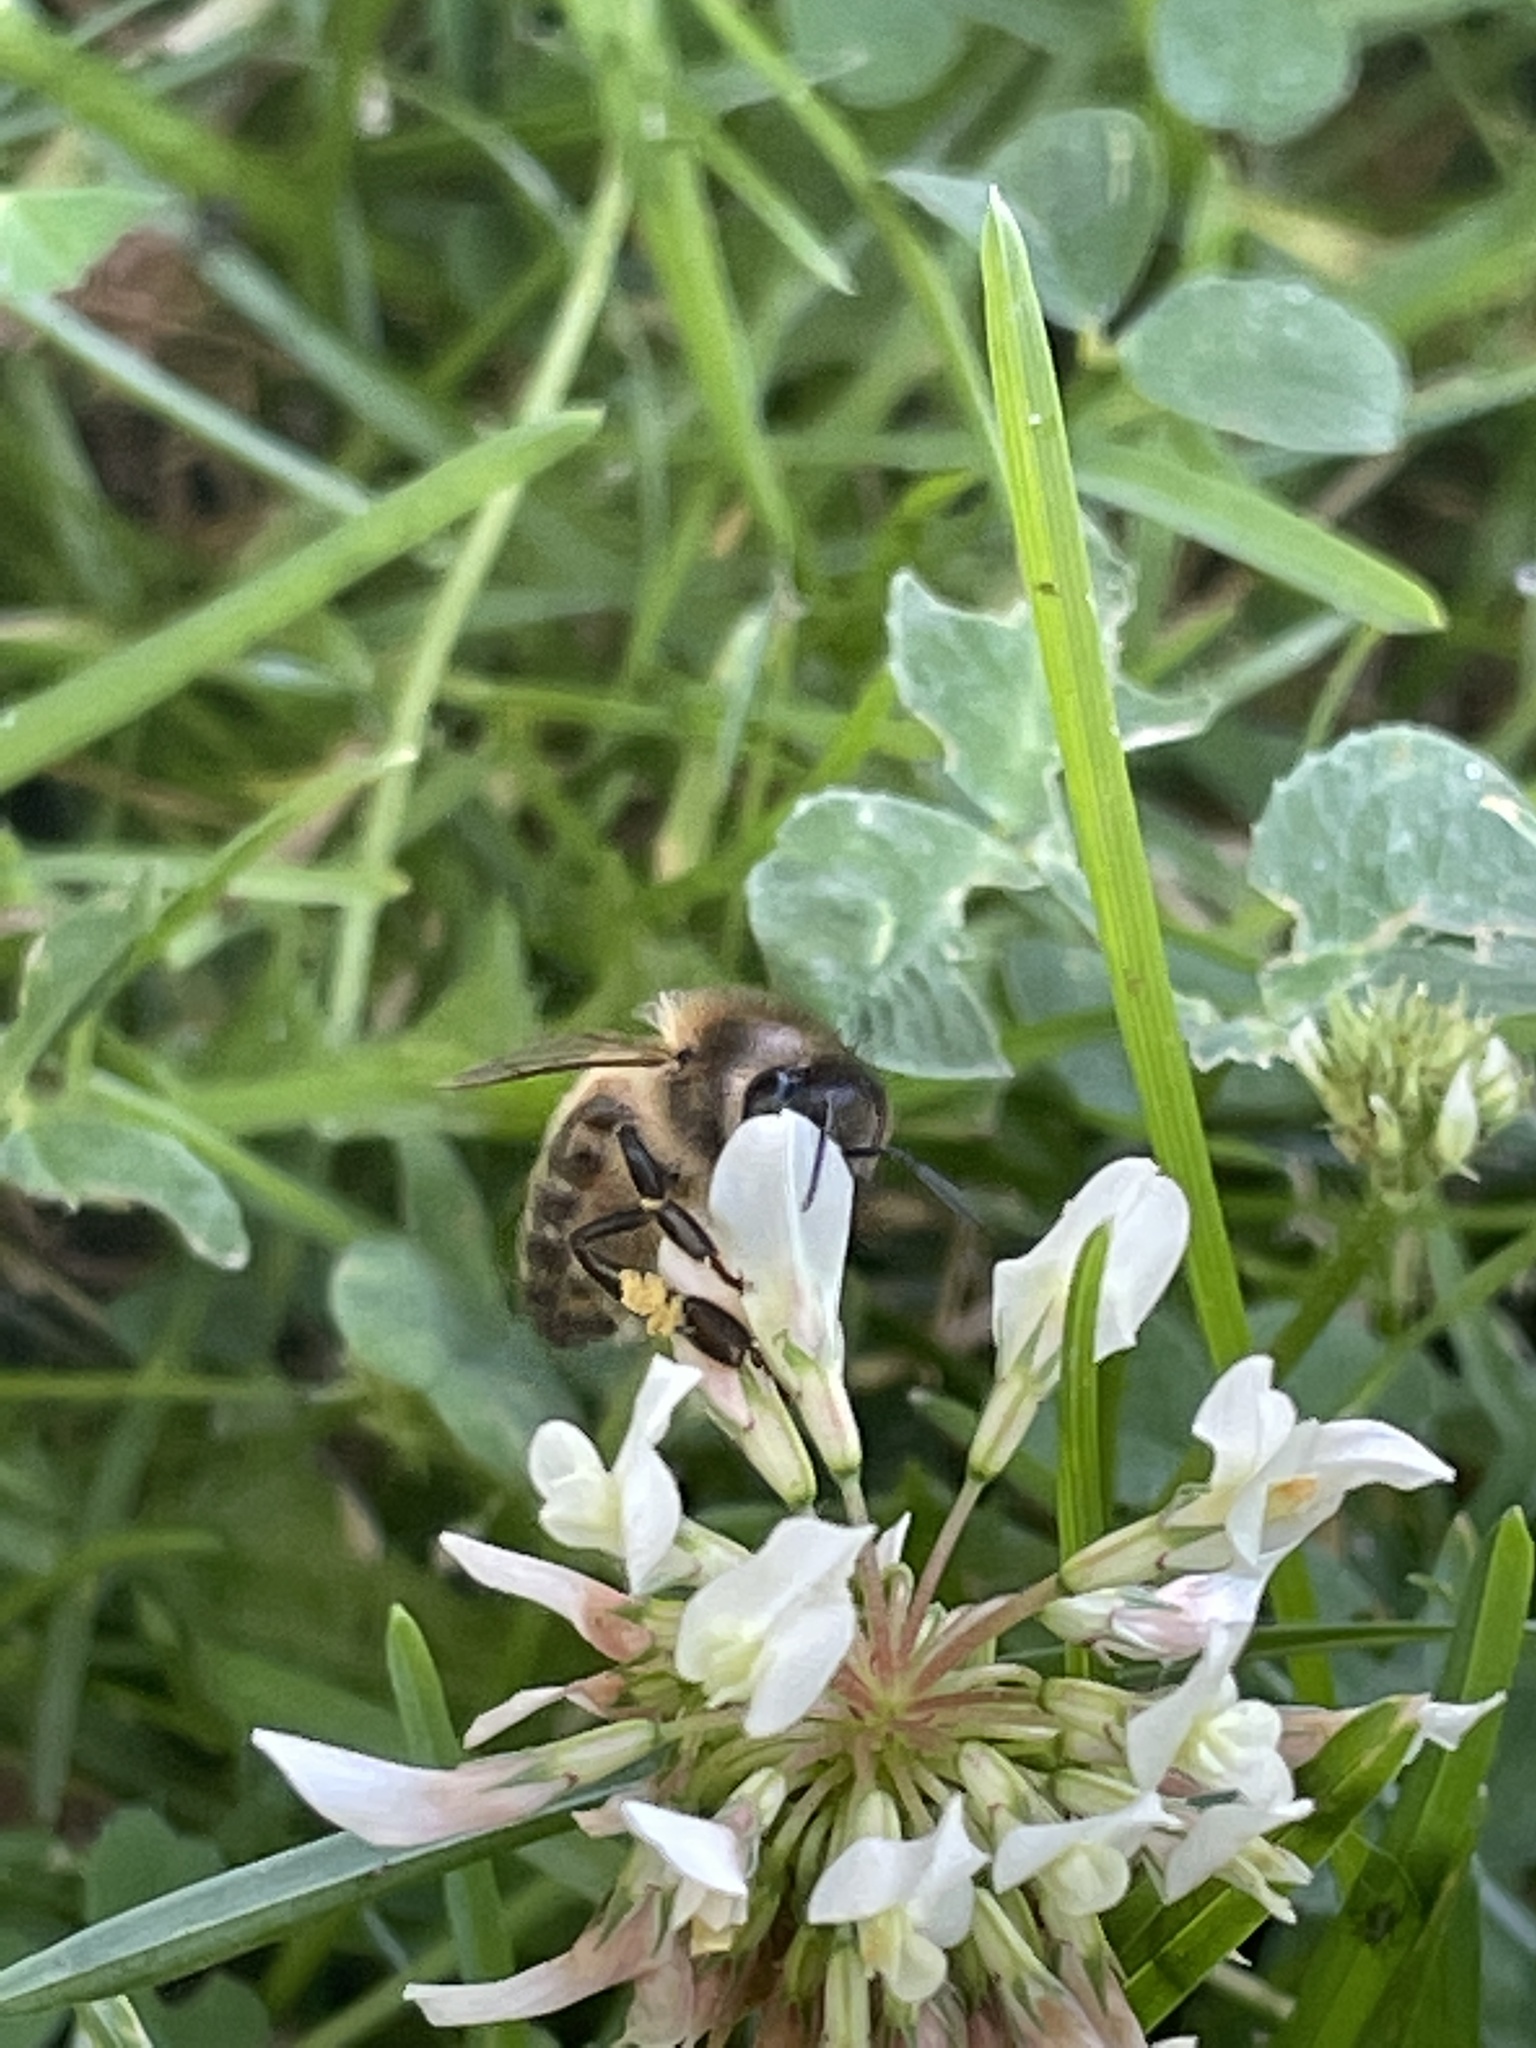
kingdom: Animalia
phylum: Arthropoda
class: Insecta
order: Hymenoptera
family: Apidae
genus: Apis
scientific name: Apis mellifera
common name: Honey bee
